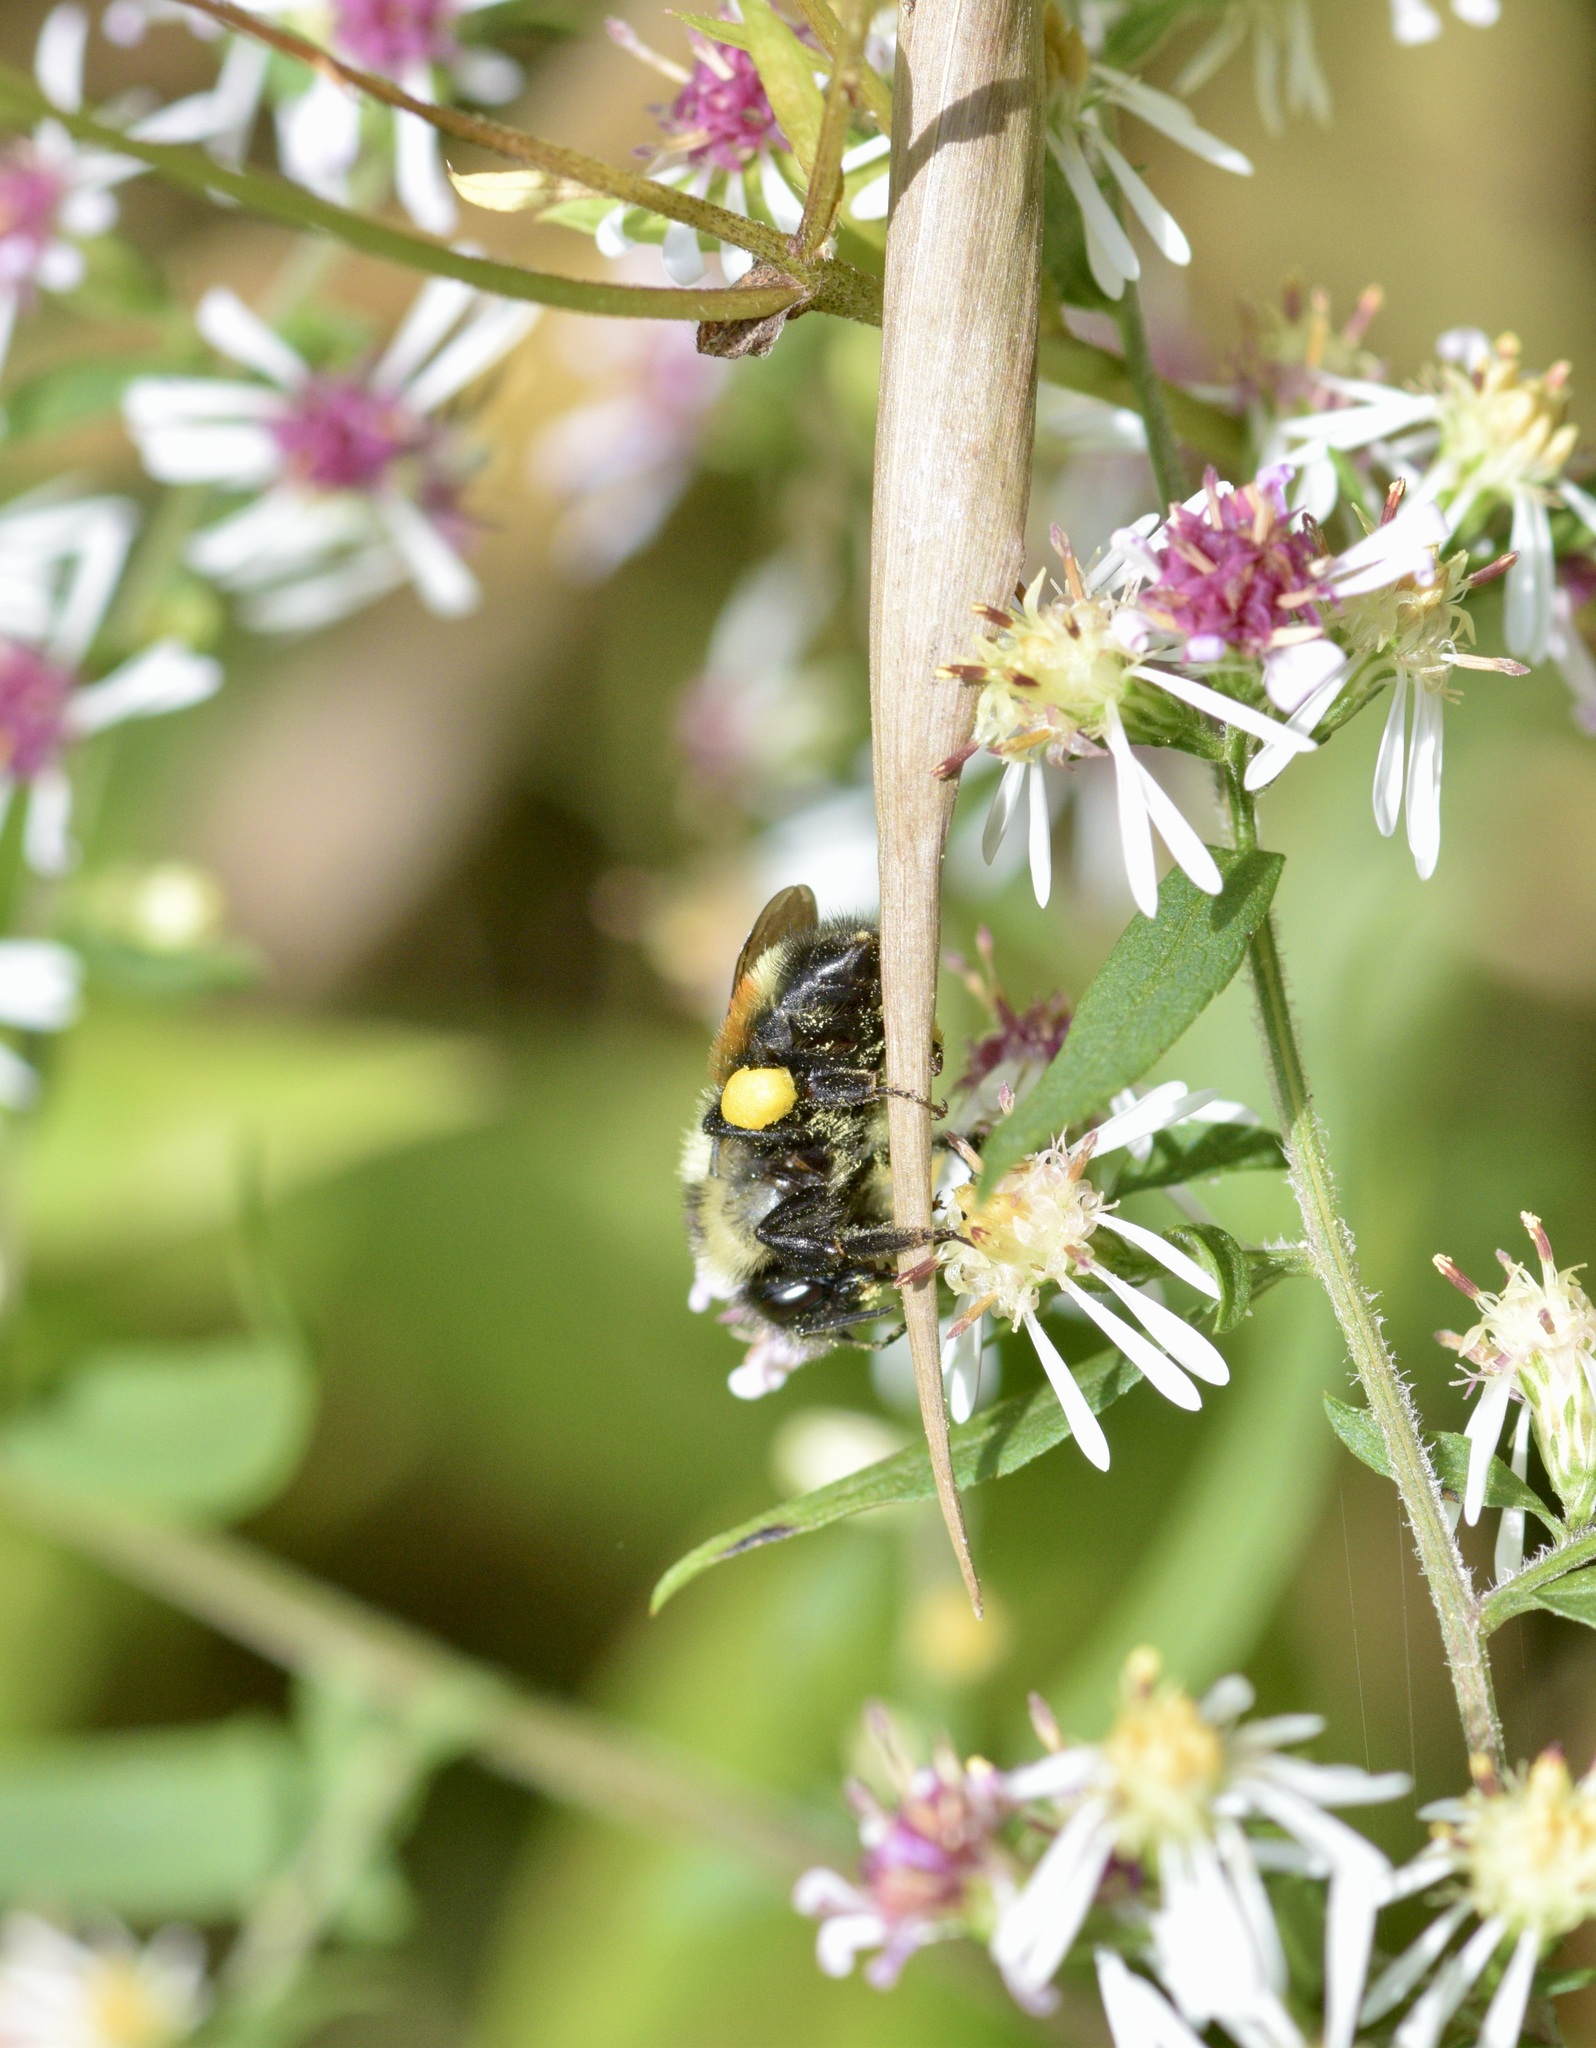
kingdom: Animalia
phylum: Arthropoda
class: Insecta
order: Hymenoptera
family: Apidae
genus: Bombus
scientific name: Bombus ternarius
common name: Tri-colored bumble bee
